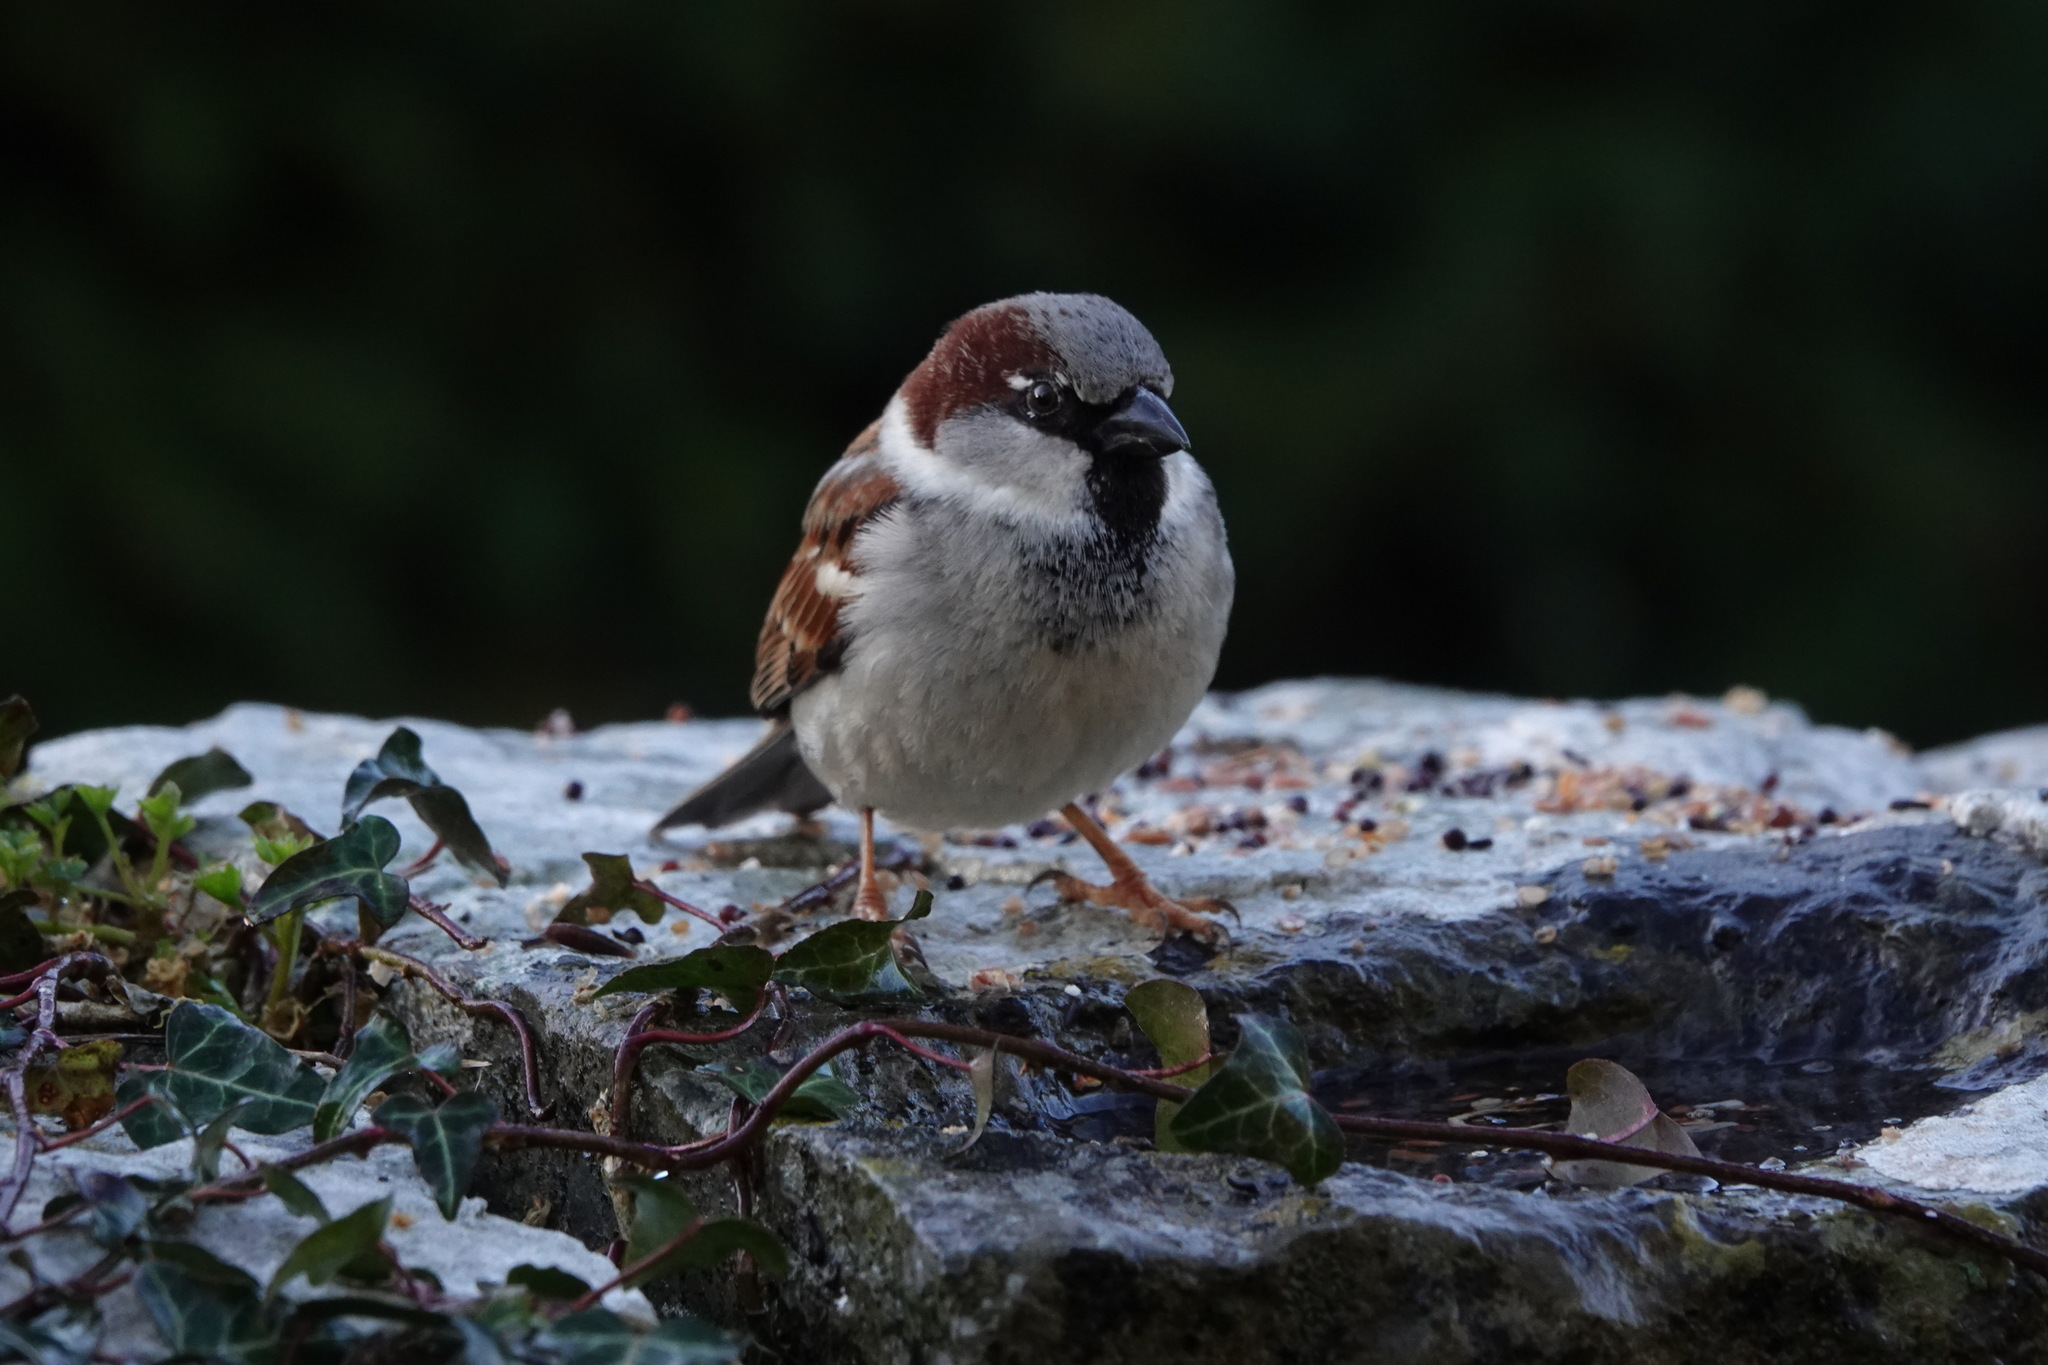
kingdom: Animalia
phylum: Chordata
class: Aves
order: Passeriformes
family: Passeridae
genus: Passer
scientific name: Passer domesticus
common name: House sparrow
